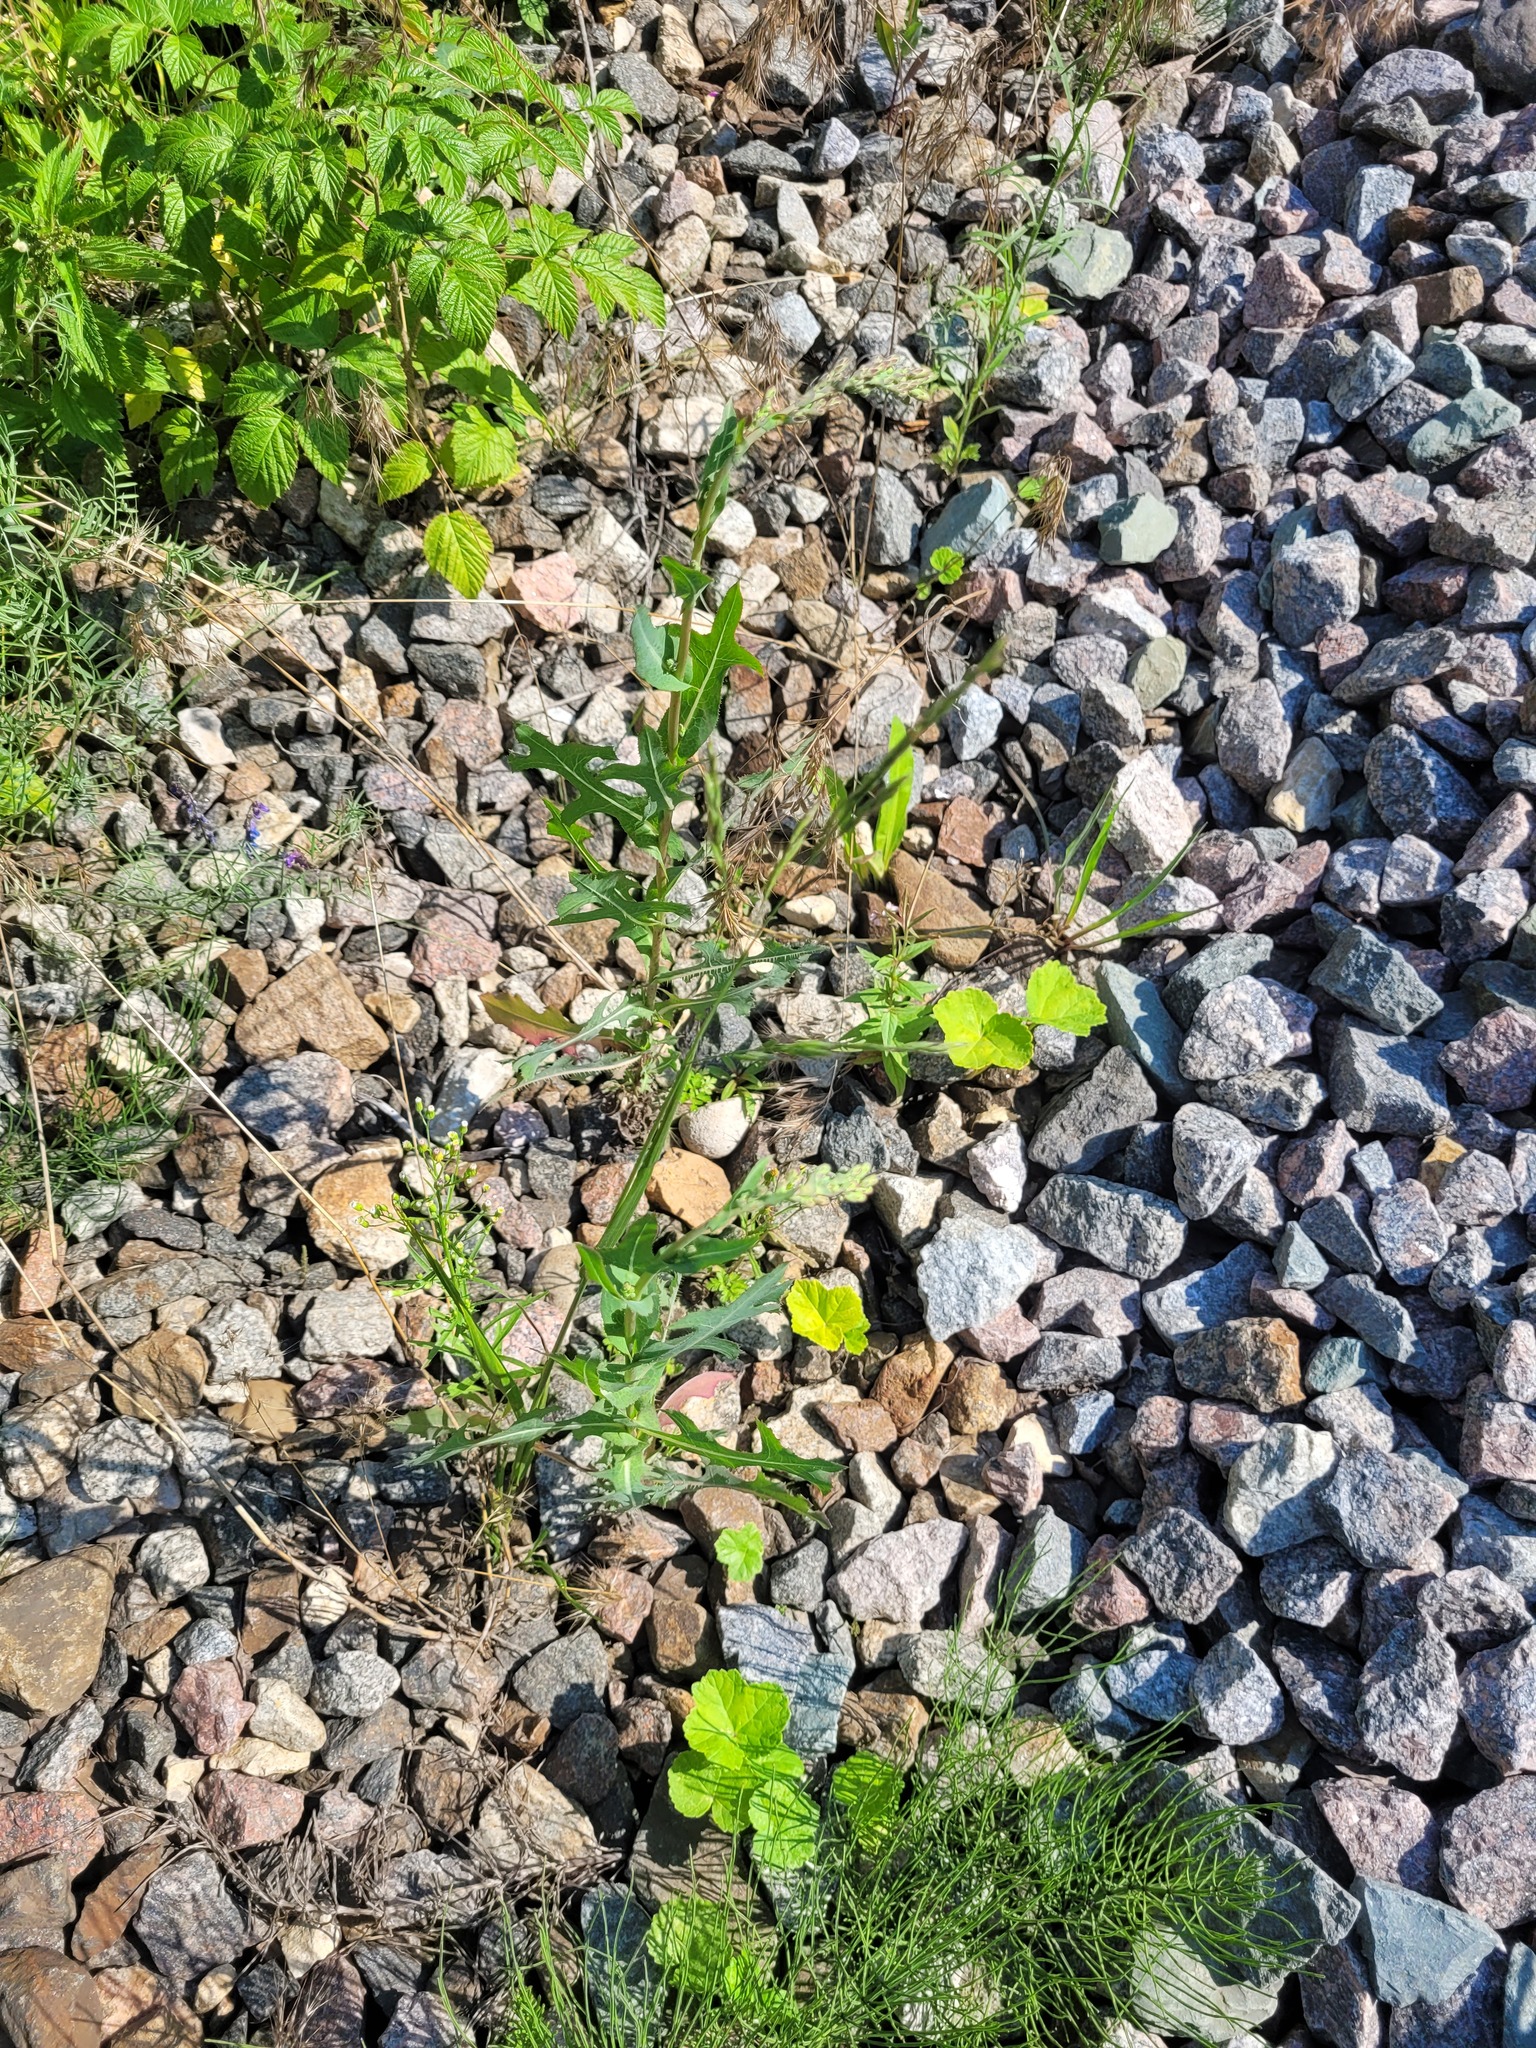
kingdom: Plantae
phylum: Tracheophyta
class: Magnoliopsida
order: Asterales
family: Asteraceae
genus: Lactuca
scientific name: Lactuca serriola
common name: Prickly lettuce
